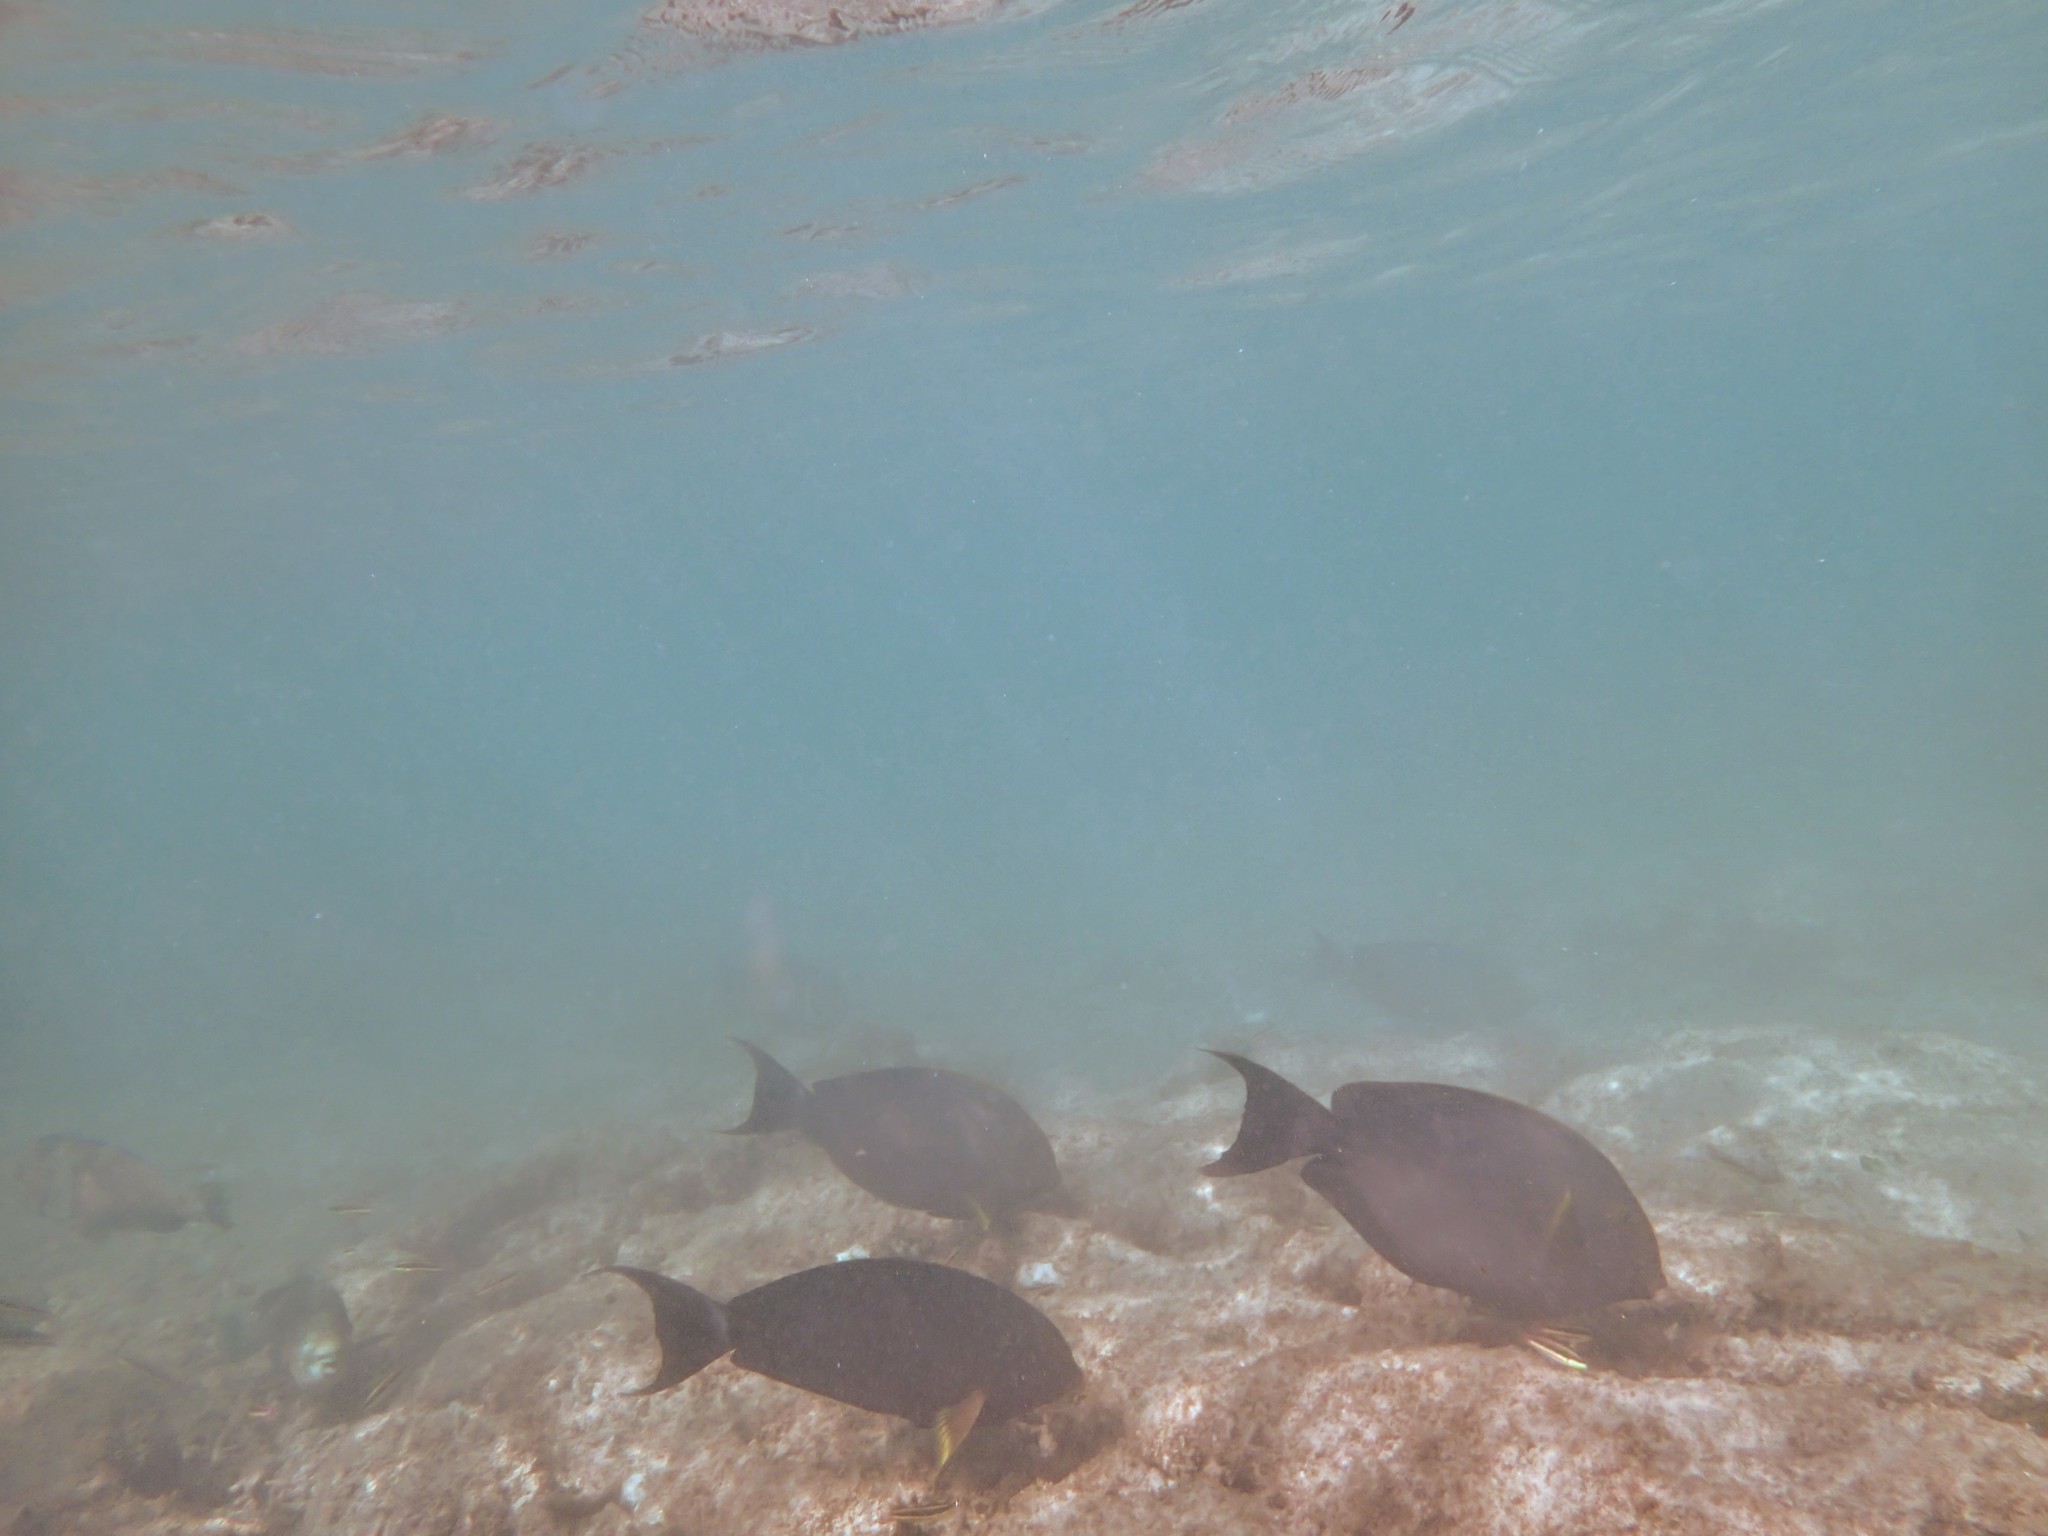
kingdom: Animalia
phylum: Chordata
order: Perciformes
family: Acanthuridae
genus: Acanthurus
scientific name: Acanthurus xanthopterus
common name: Cuvier's surgeonfish
